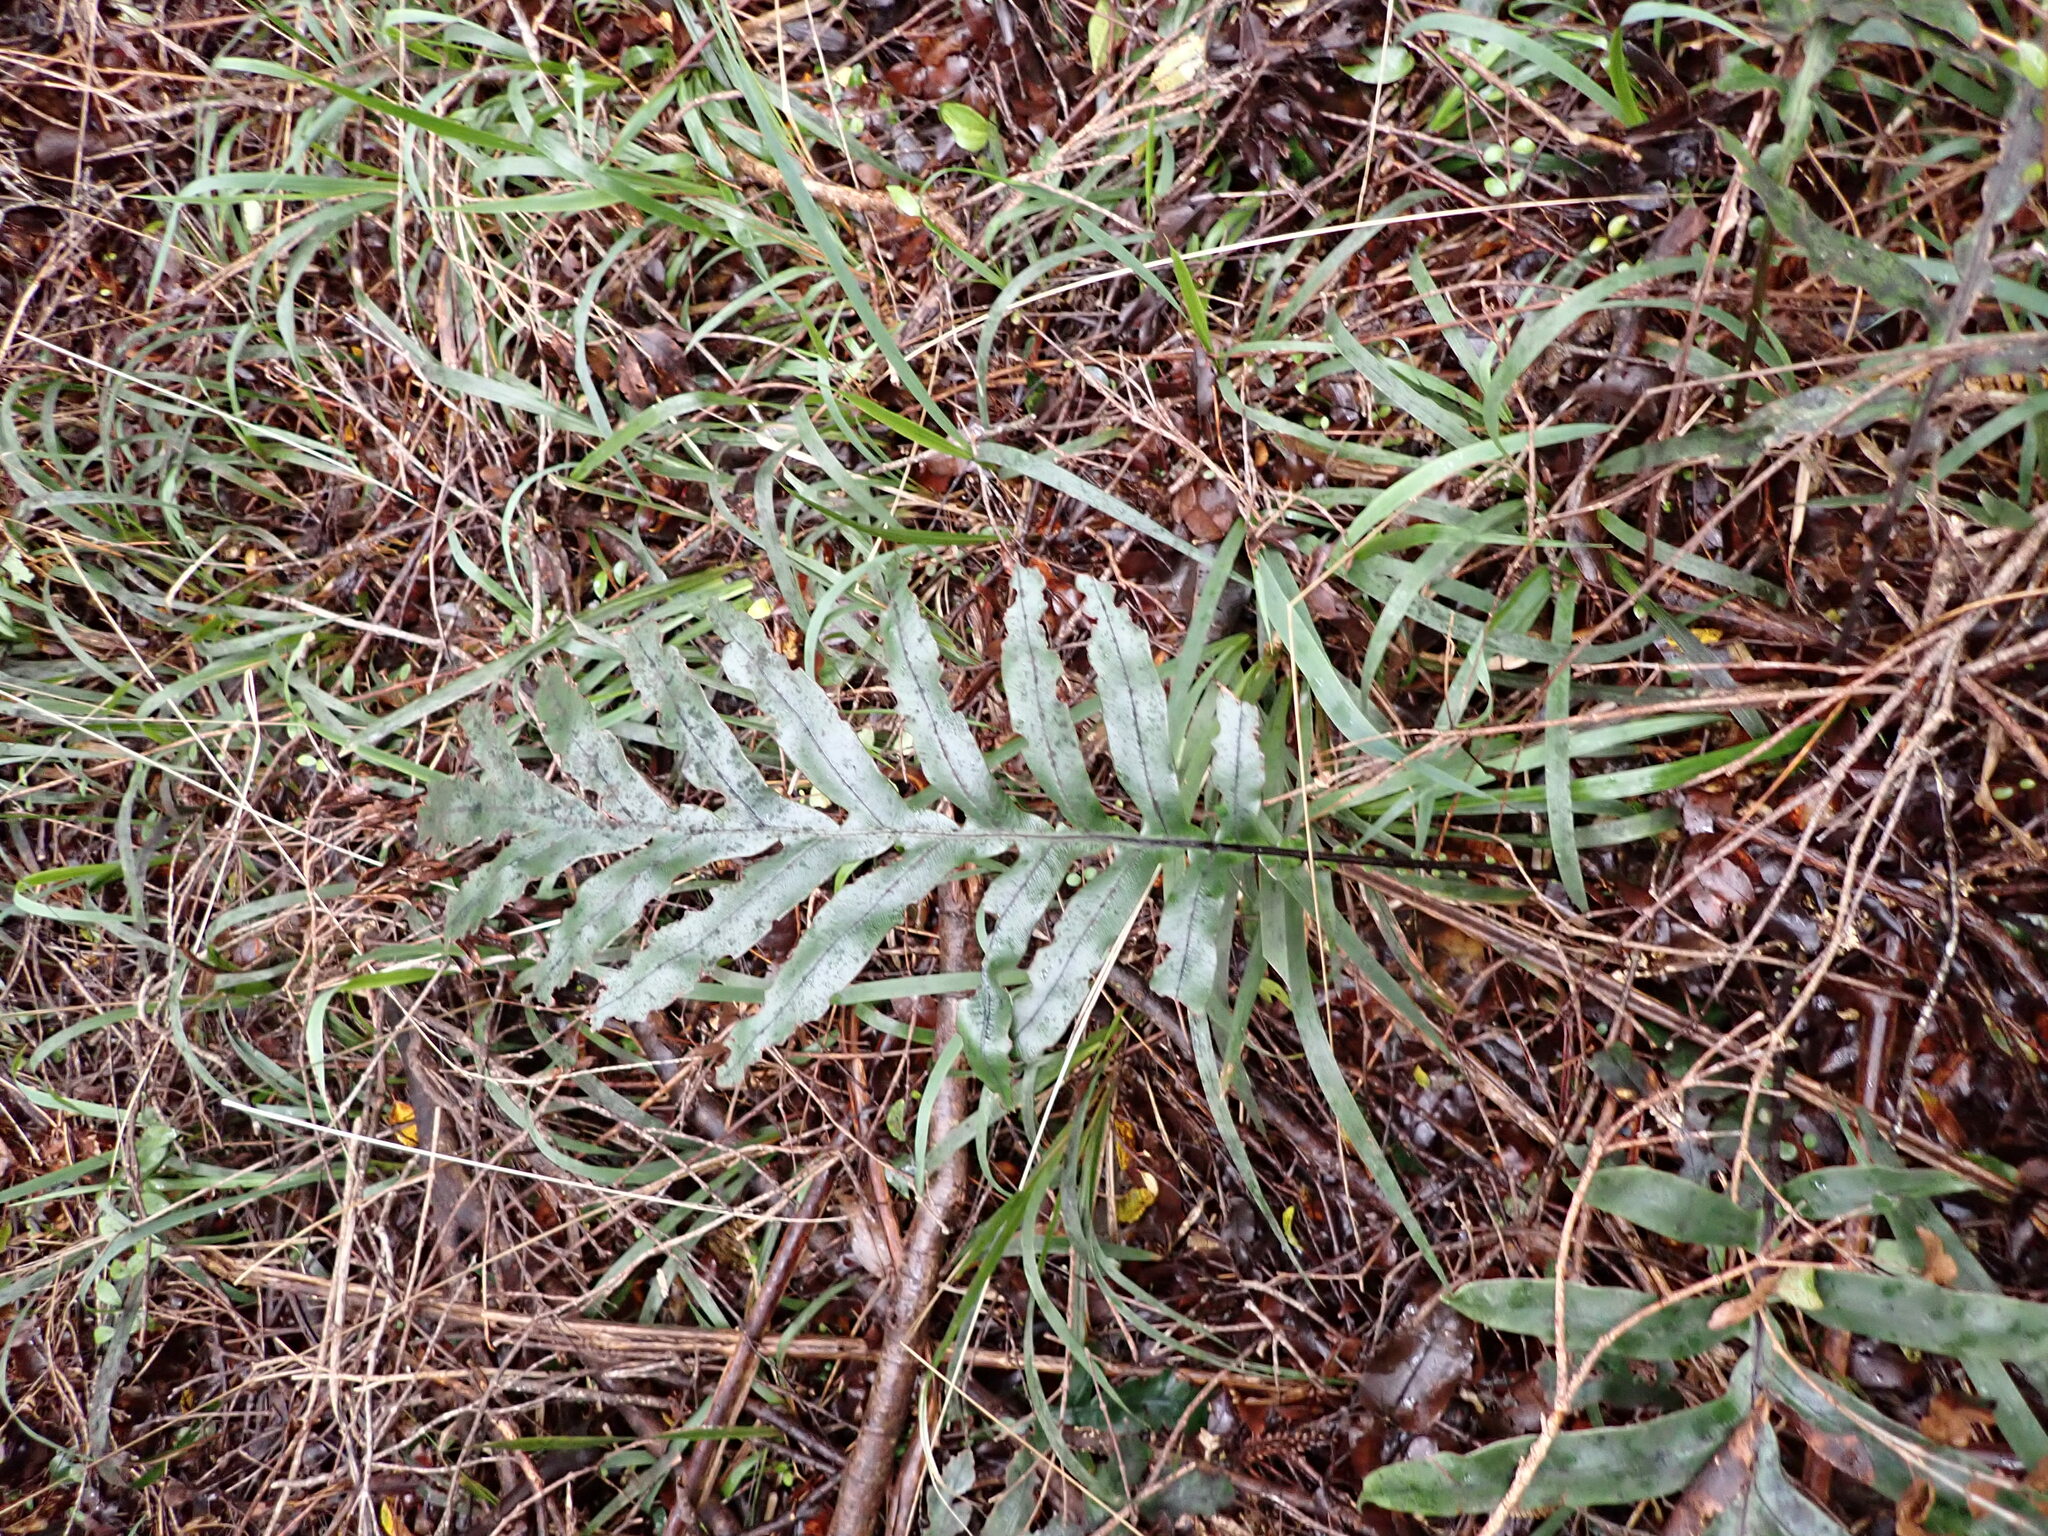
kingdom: Plantae
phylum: Tracheophyta
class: Polypodiopsida
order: Polypodiales
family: Blechnaceae
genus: Austroblechnum
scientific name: Austroblechnum colensoi
